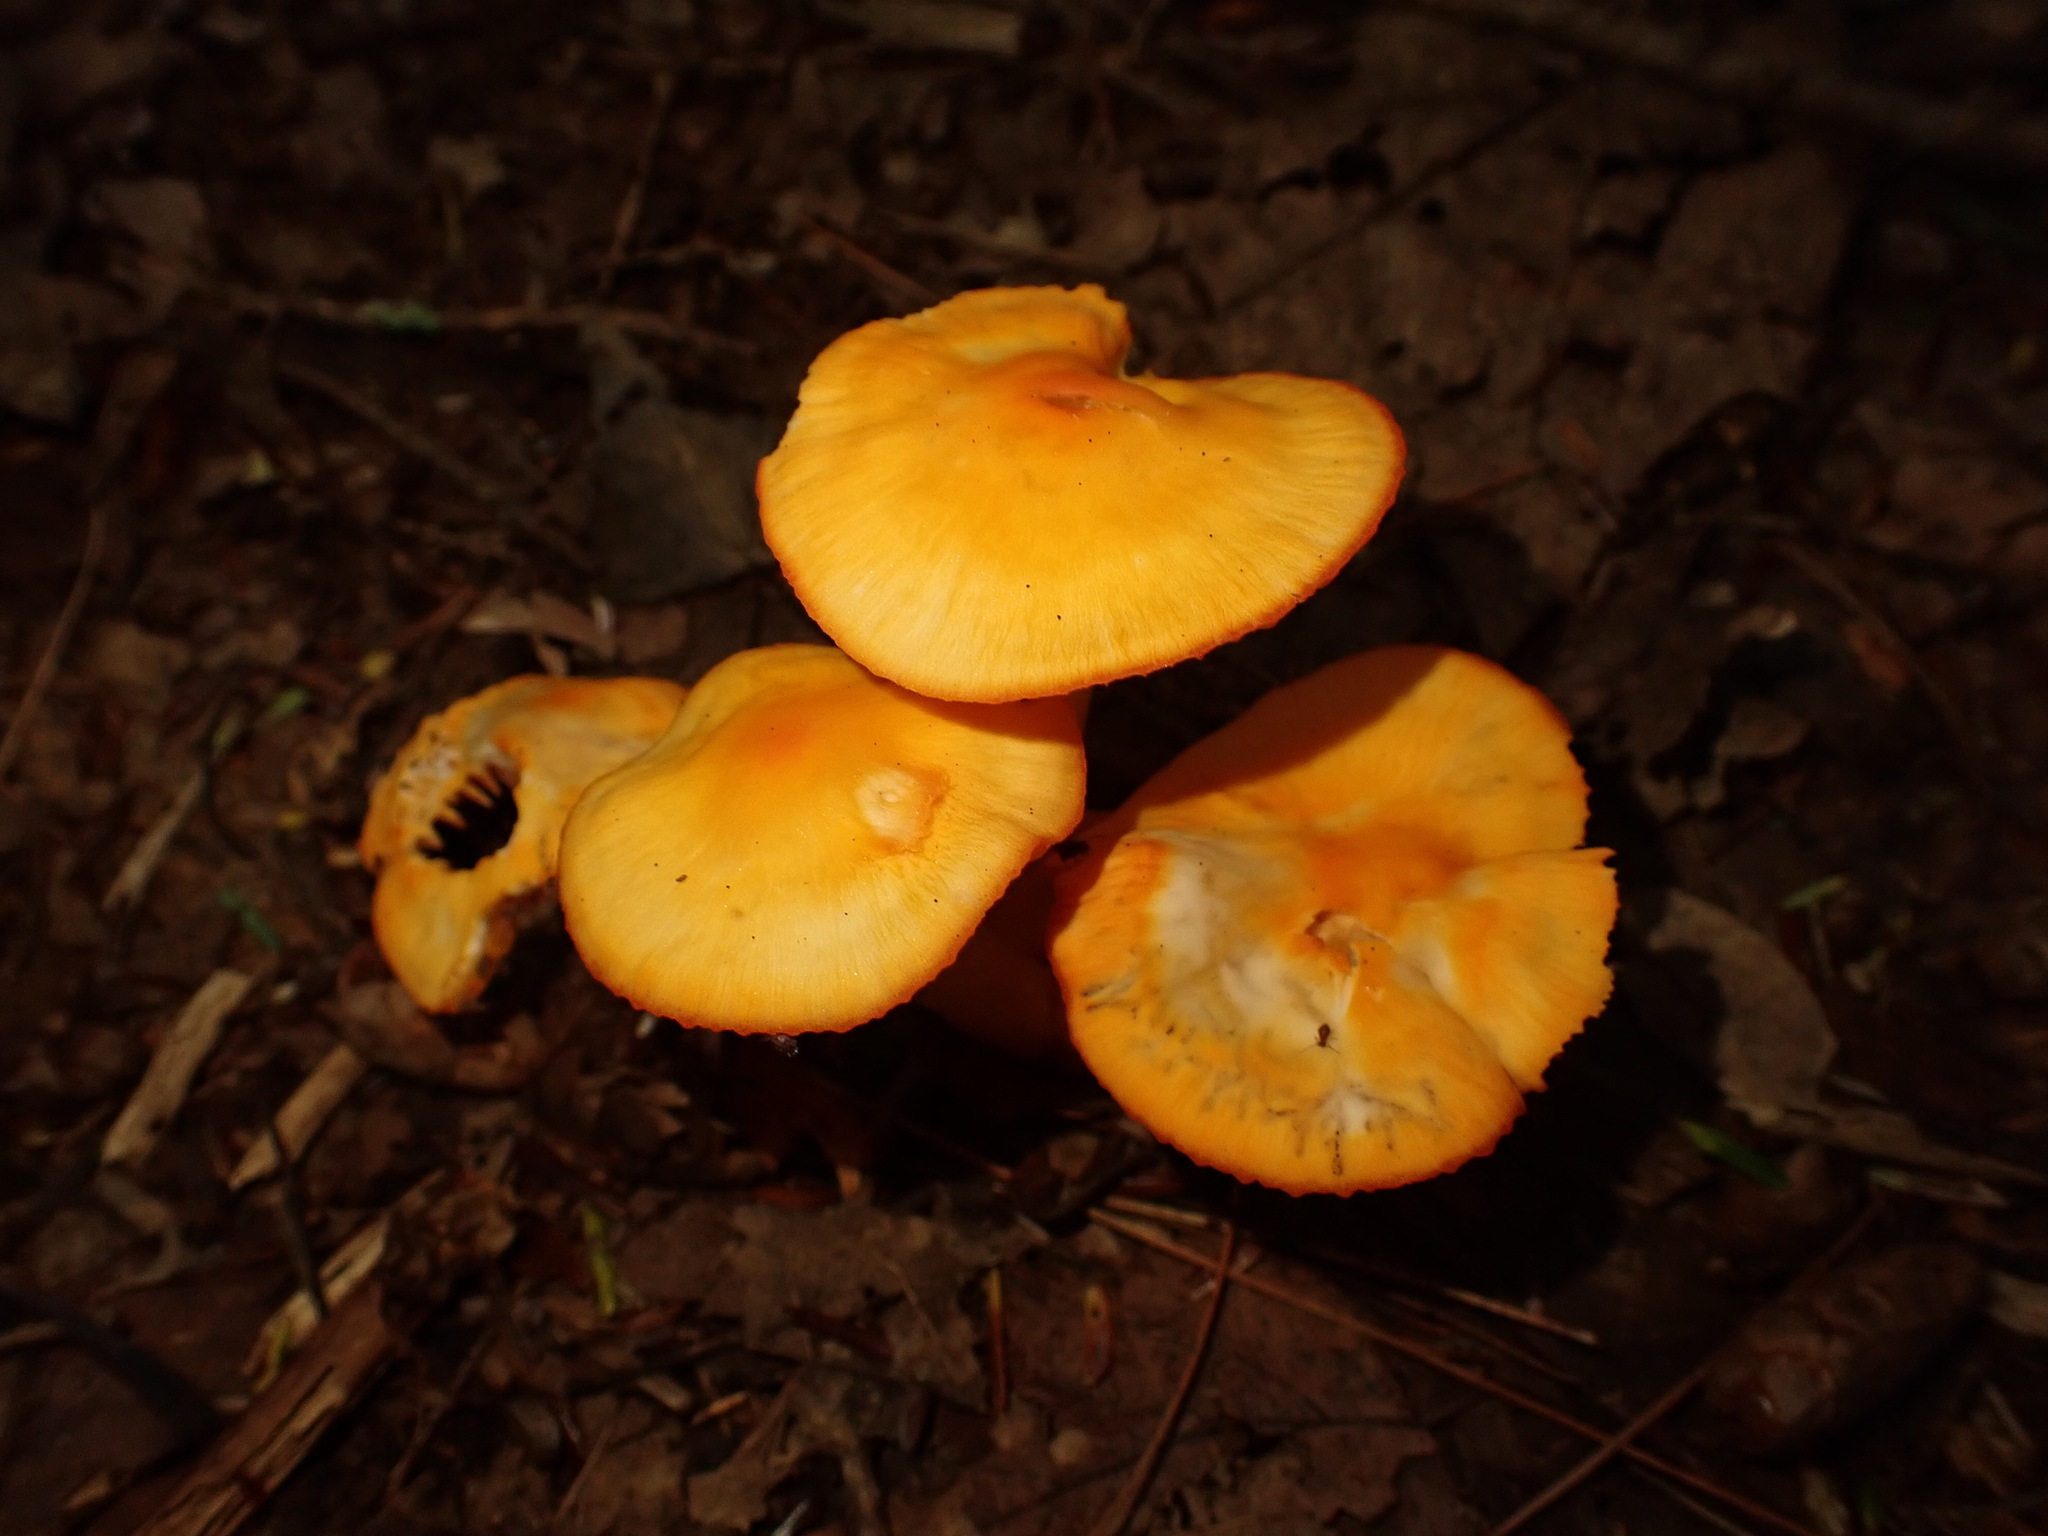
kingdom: Fungi
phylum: Basidiomycota
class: Agaricomycetes
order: Agaricales
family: Hygrophoraceae
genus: Humidicutis
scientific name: Humidicutis marginata
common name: Orange gilled waxcap
